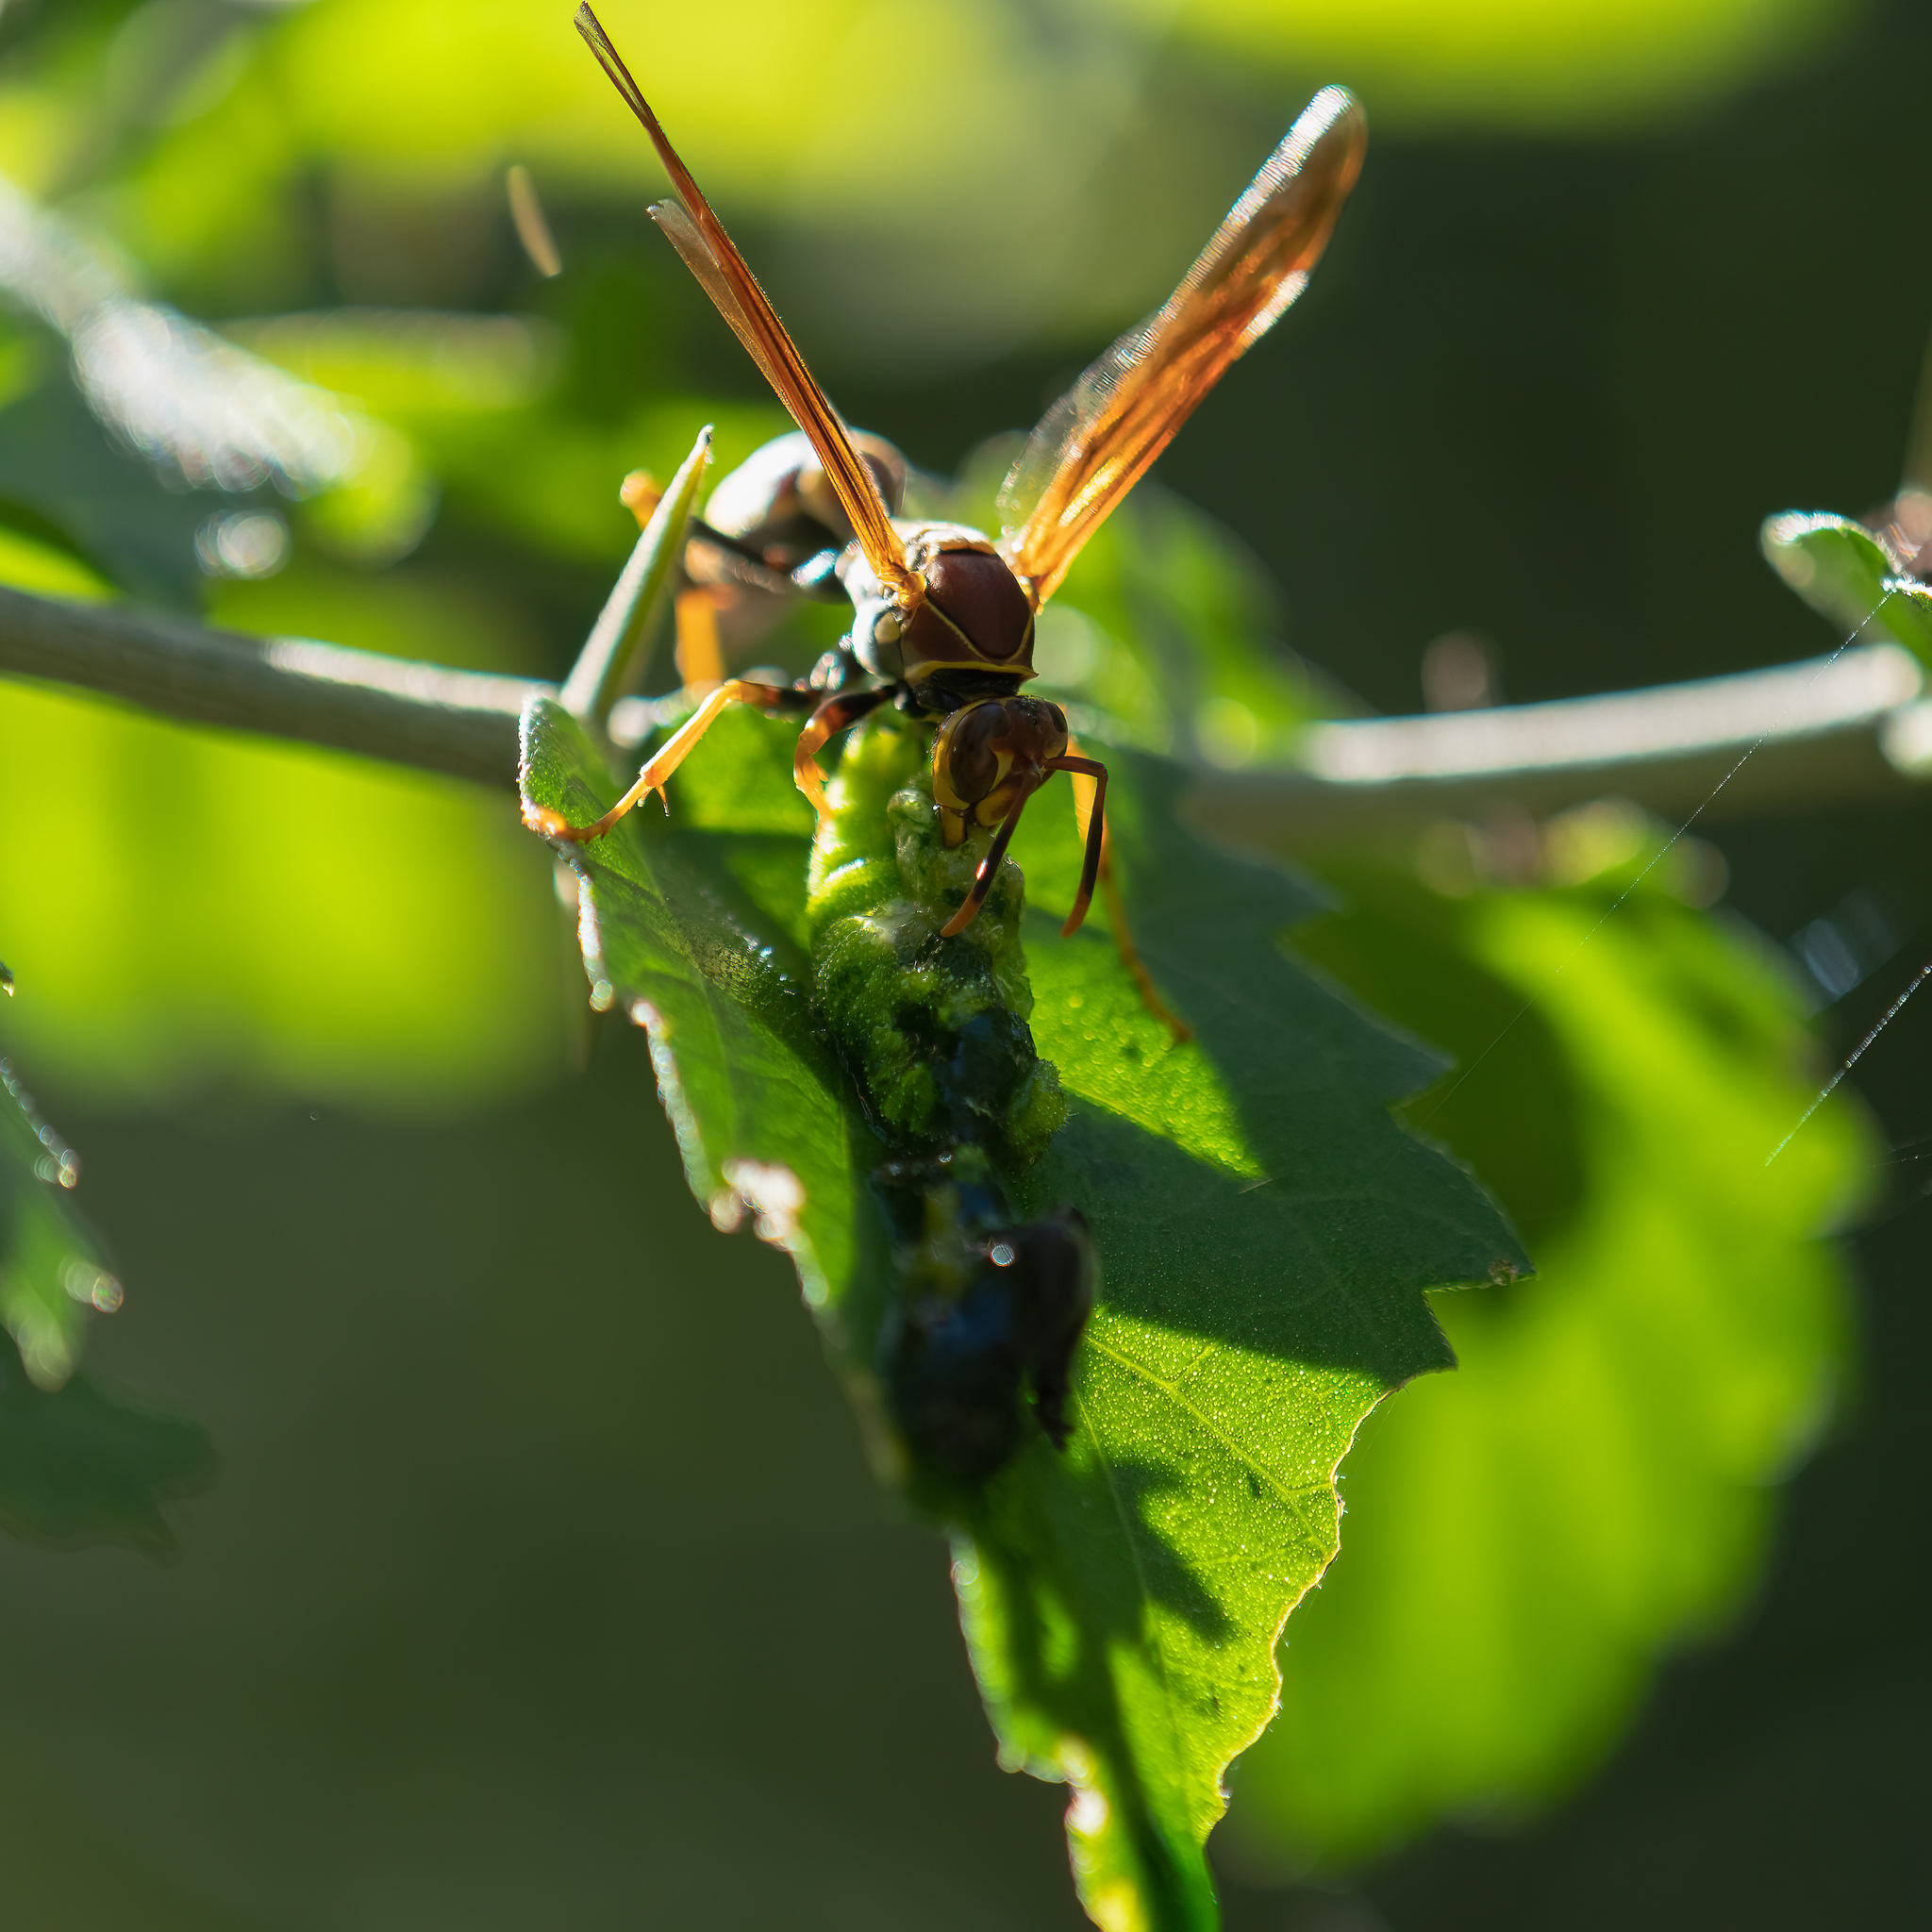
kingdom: Animalia
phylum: Arthropoda
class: Insecta
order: Hymenoptera
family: Eumenidae
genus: Polistes
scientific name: Polistes instabilis
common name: Unstable paper wasp
